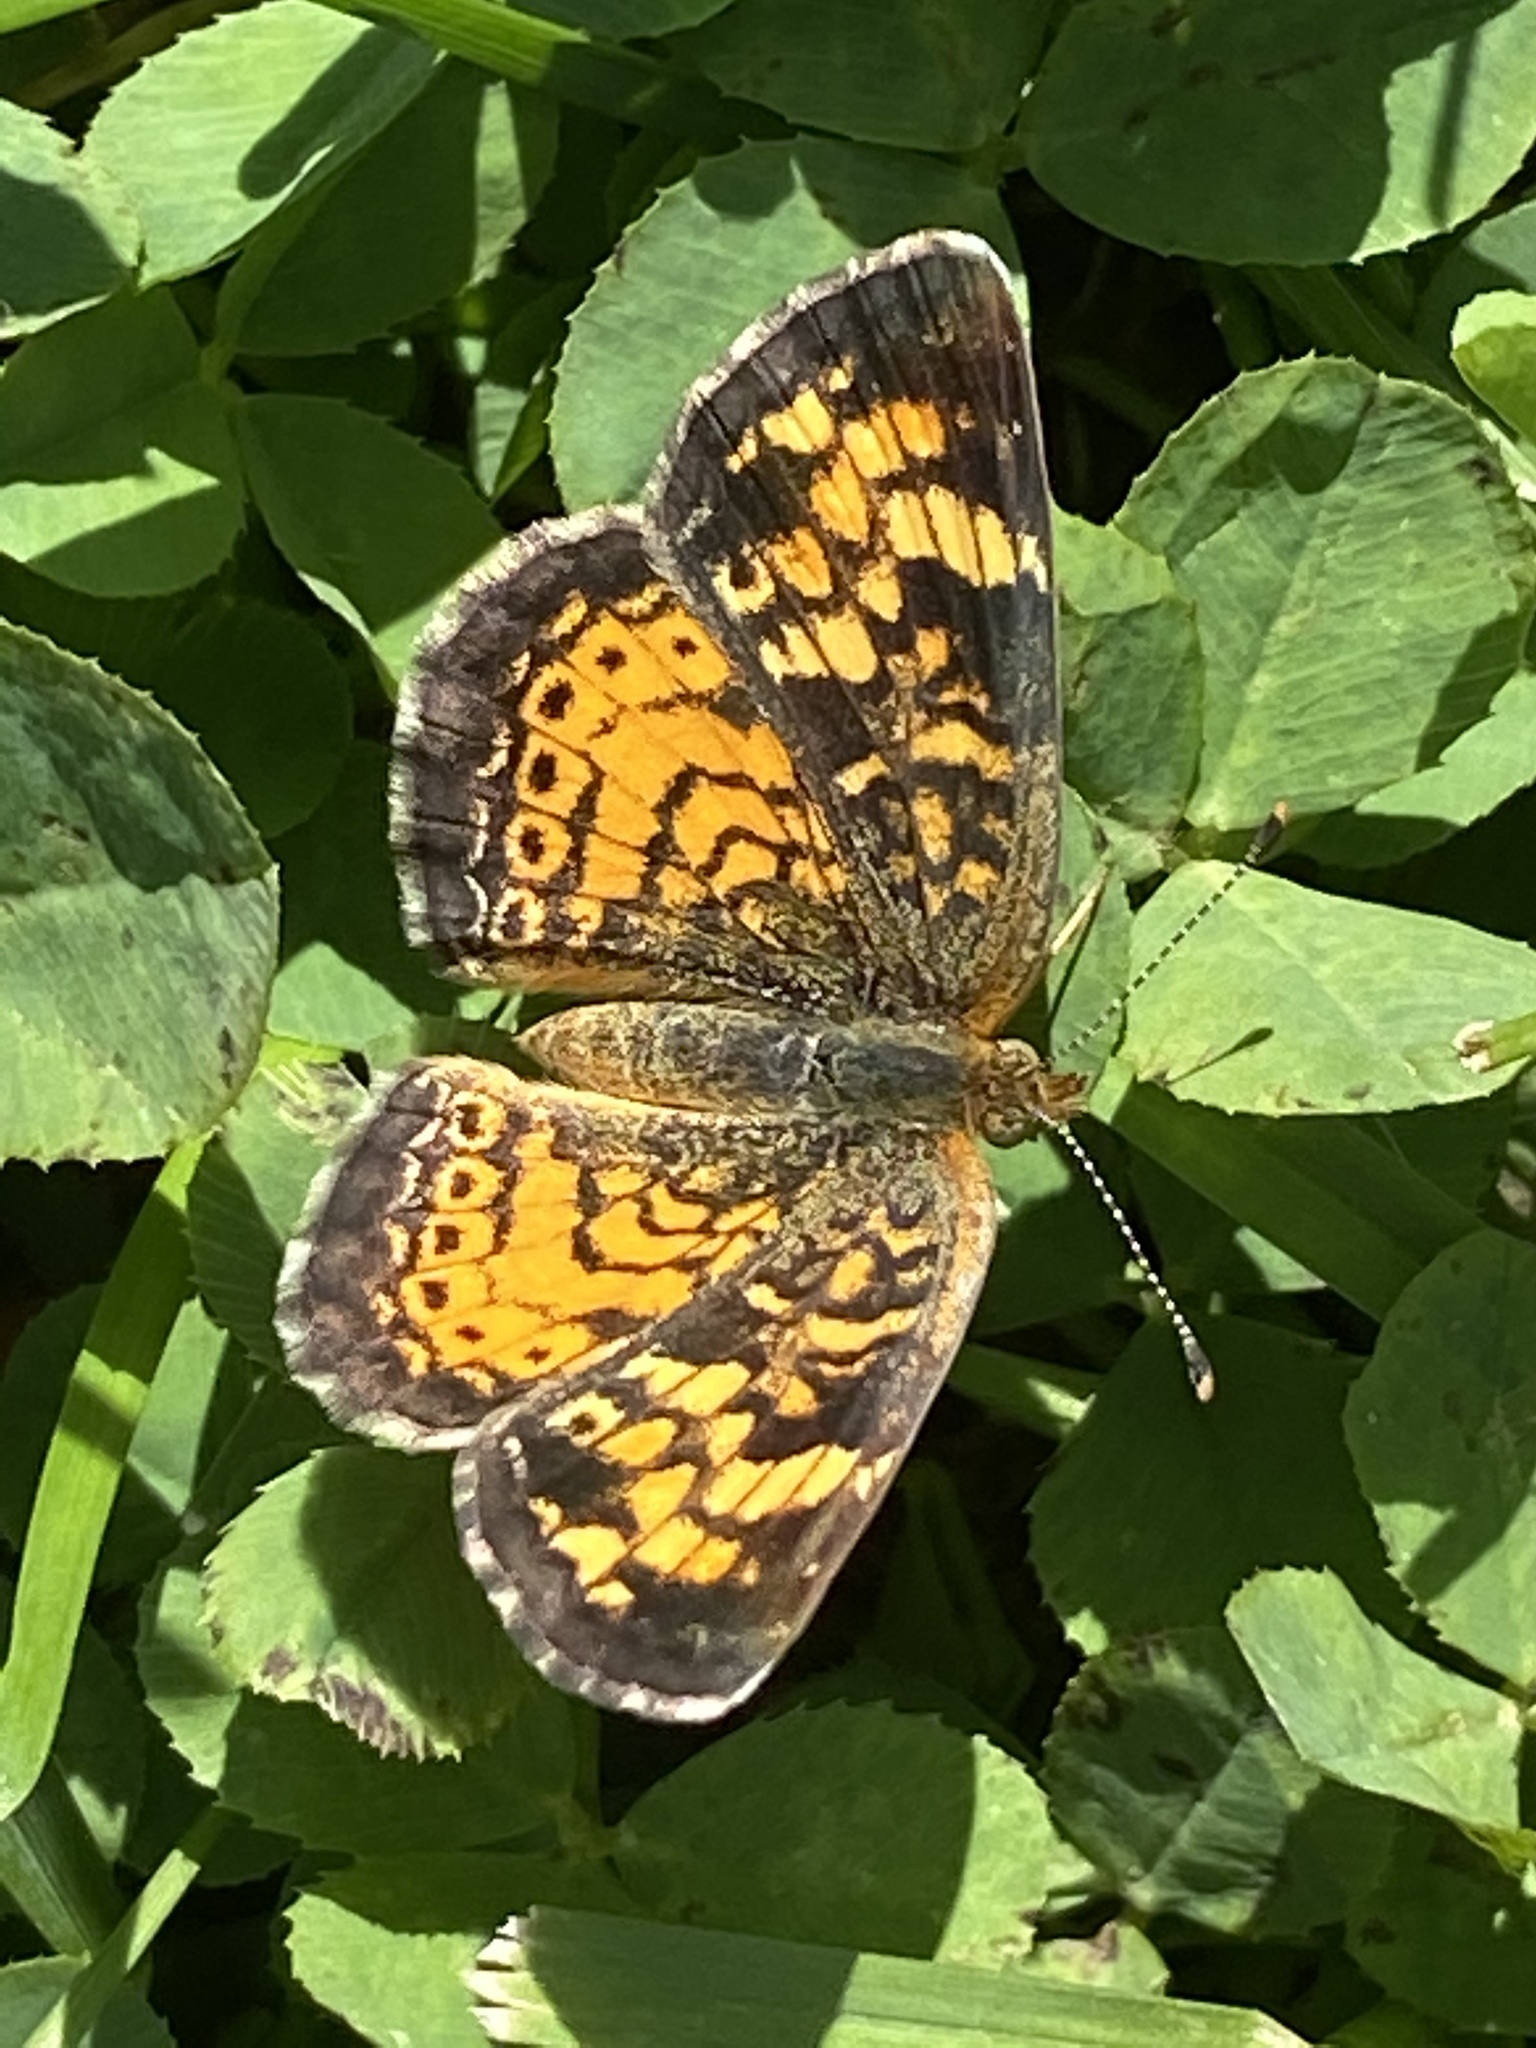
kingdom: Animalia
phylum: Arthropoda
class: Insecta
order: Lepidoptera
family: Nymphalidae
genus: Phyciodes
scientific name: Phyciodes tharos
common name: Pearl crescent
